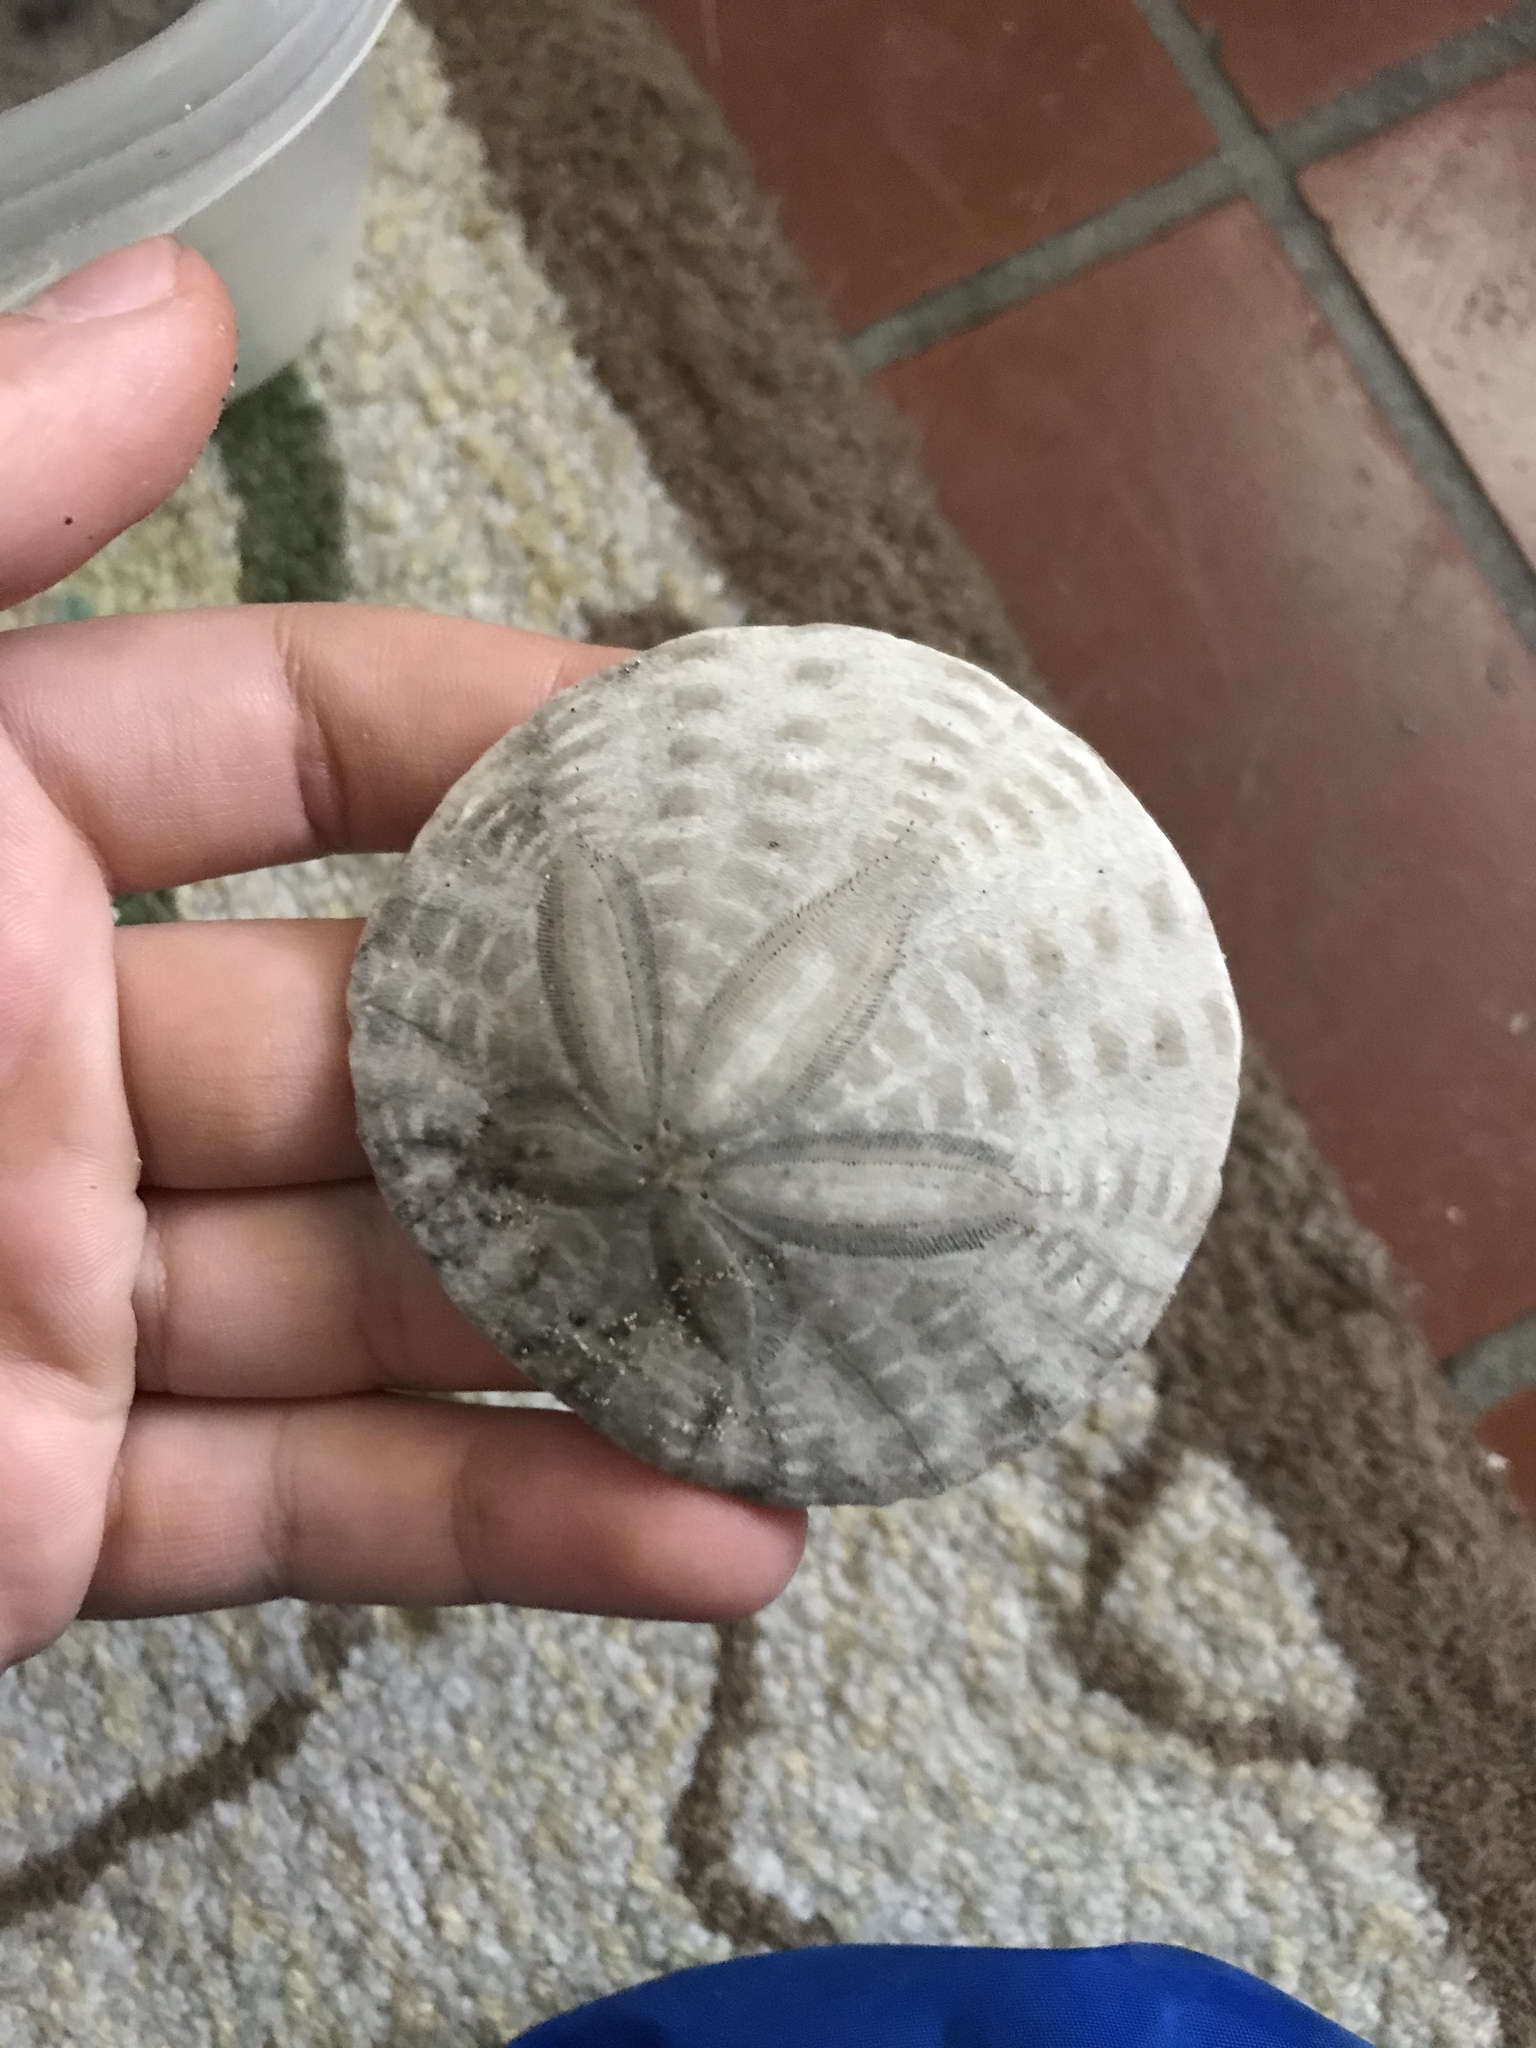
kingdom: Animalia
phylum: Echinodermata
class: Echinoidea
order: Echinolampadacea
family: Dendrasteridae
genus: Dendraster
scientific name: Dendraster excentricus
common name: Eccentric sand dollar sea urchin
